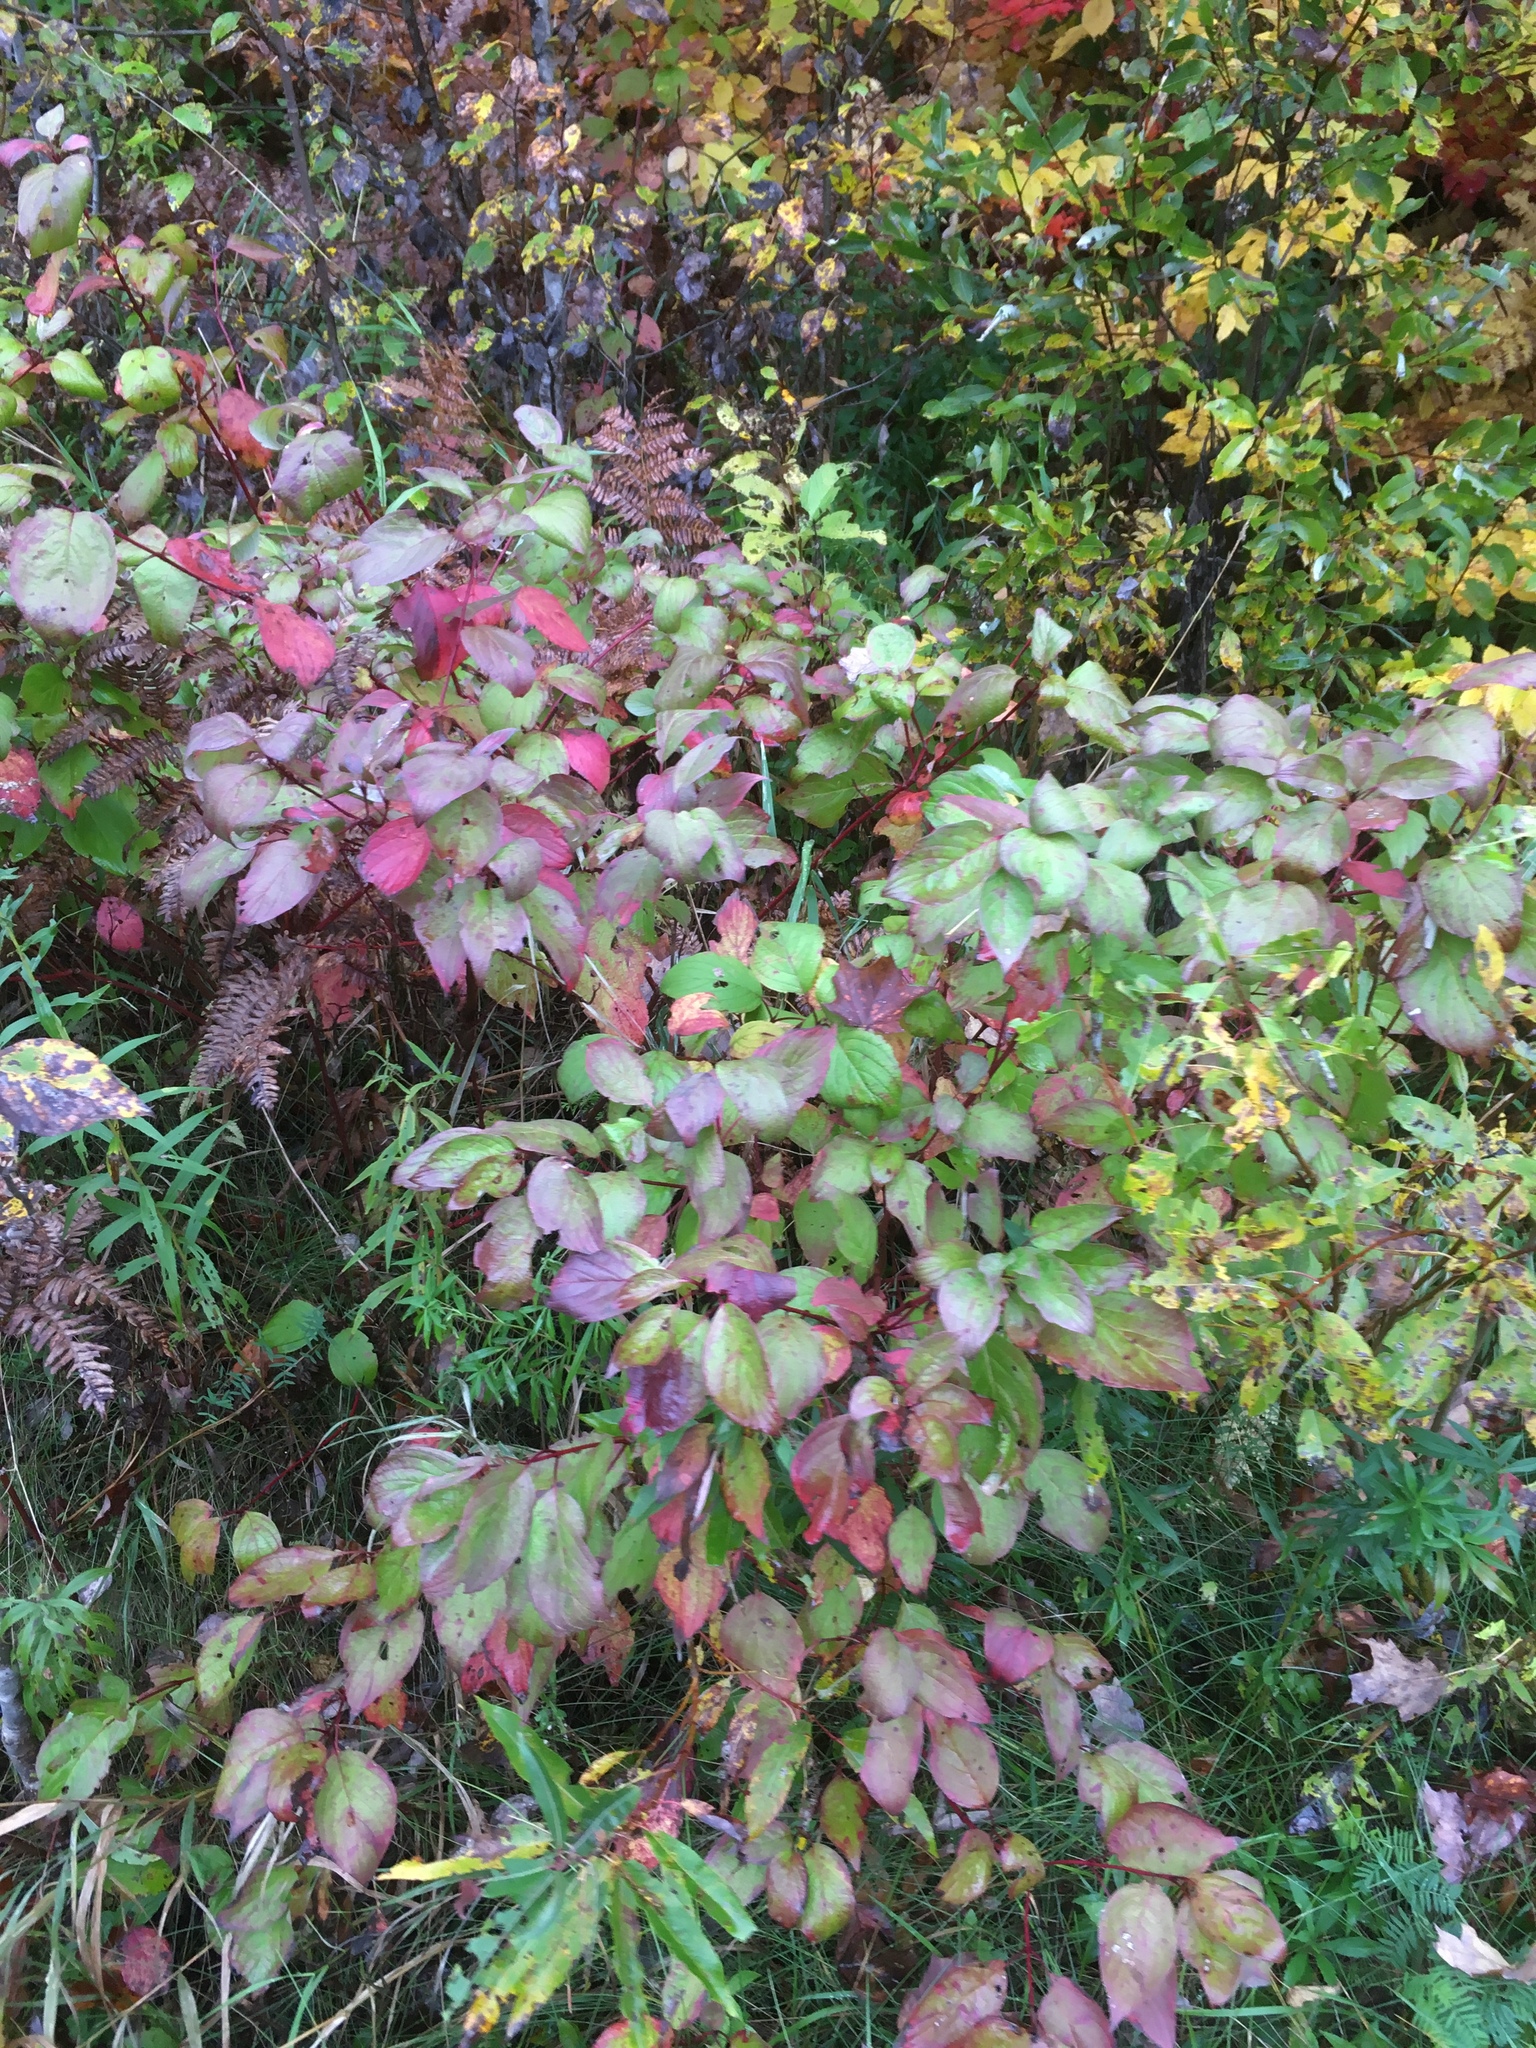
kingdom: Plantae
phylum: Tracheophyta
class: Magnoliopsida
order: Cornales
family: Cornaceae
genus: Cornus
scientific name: Cornus sericea
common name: Red-osier dogwood
